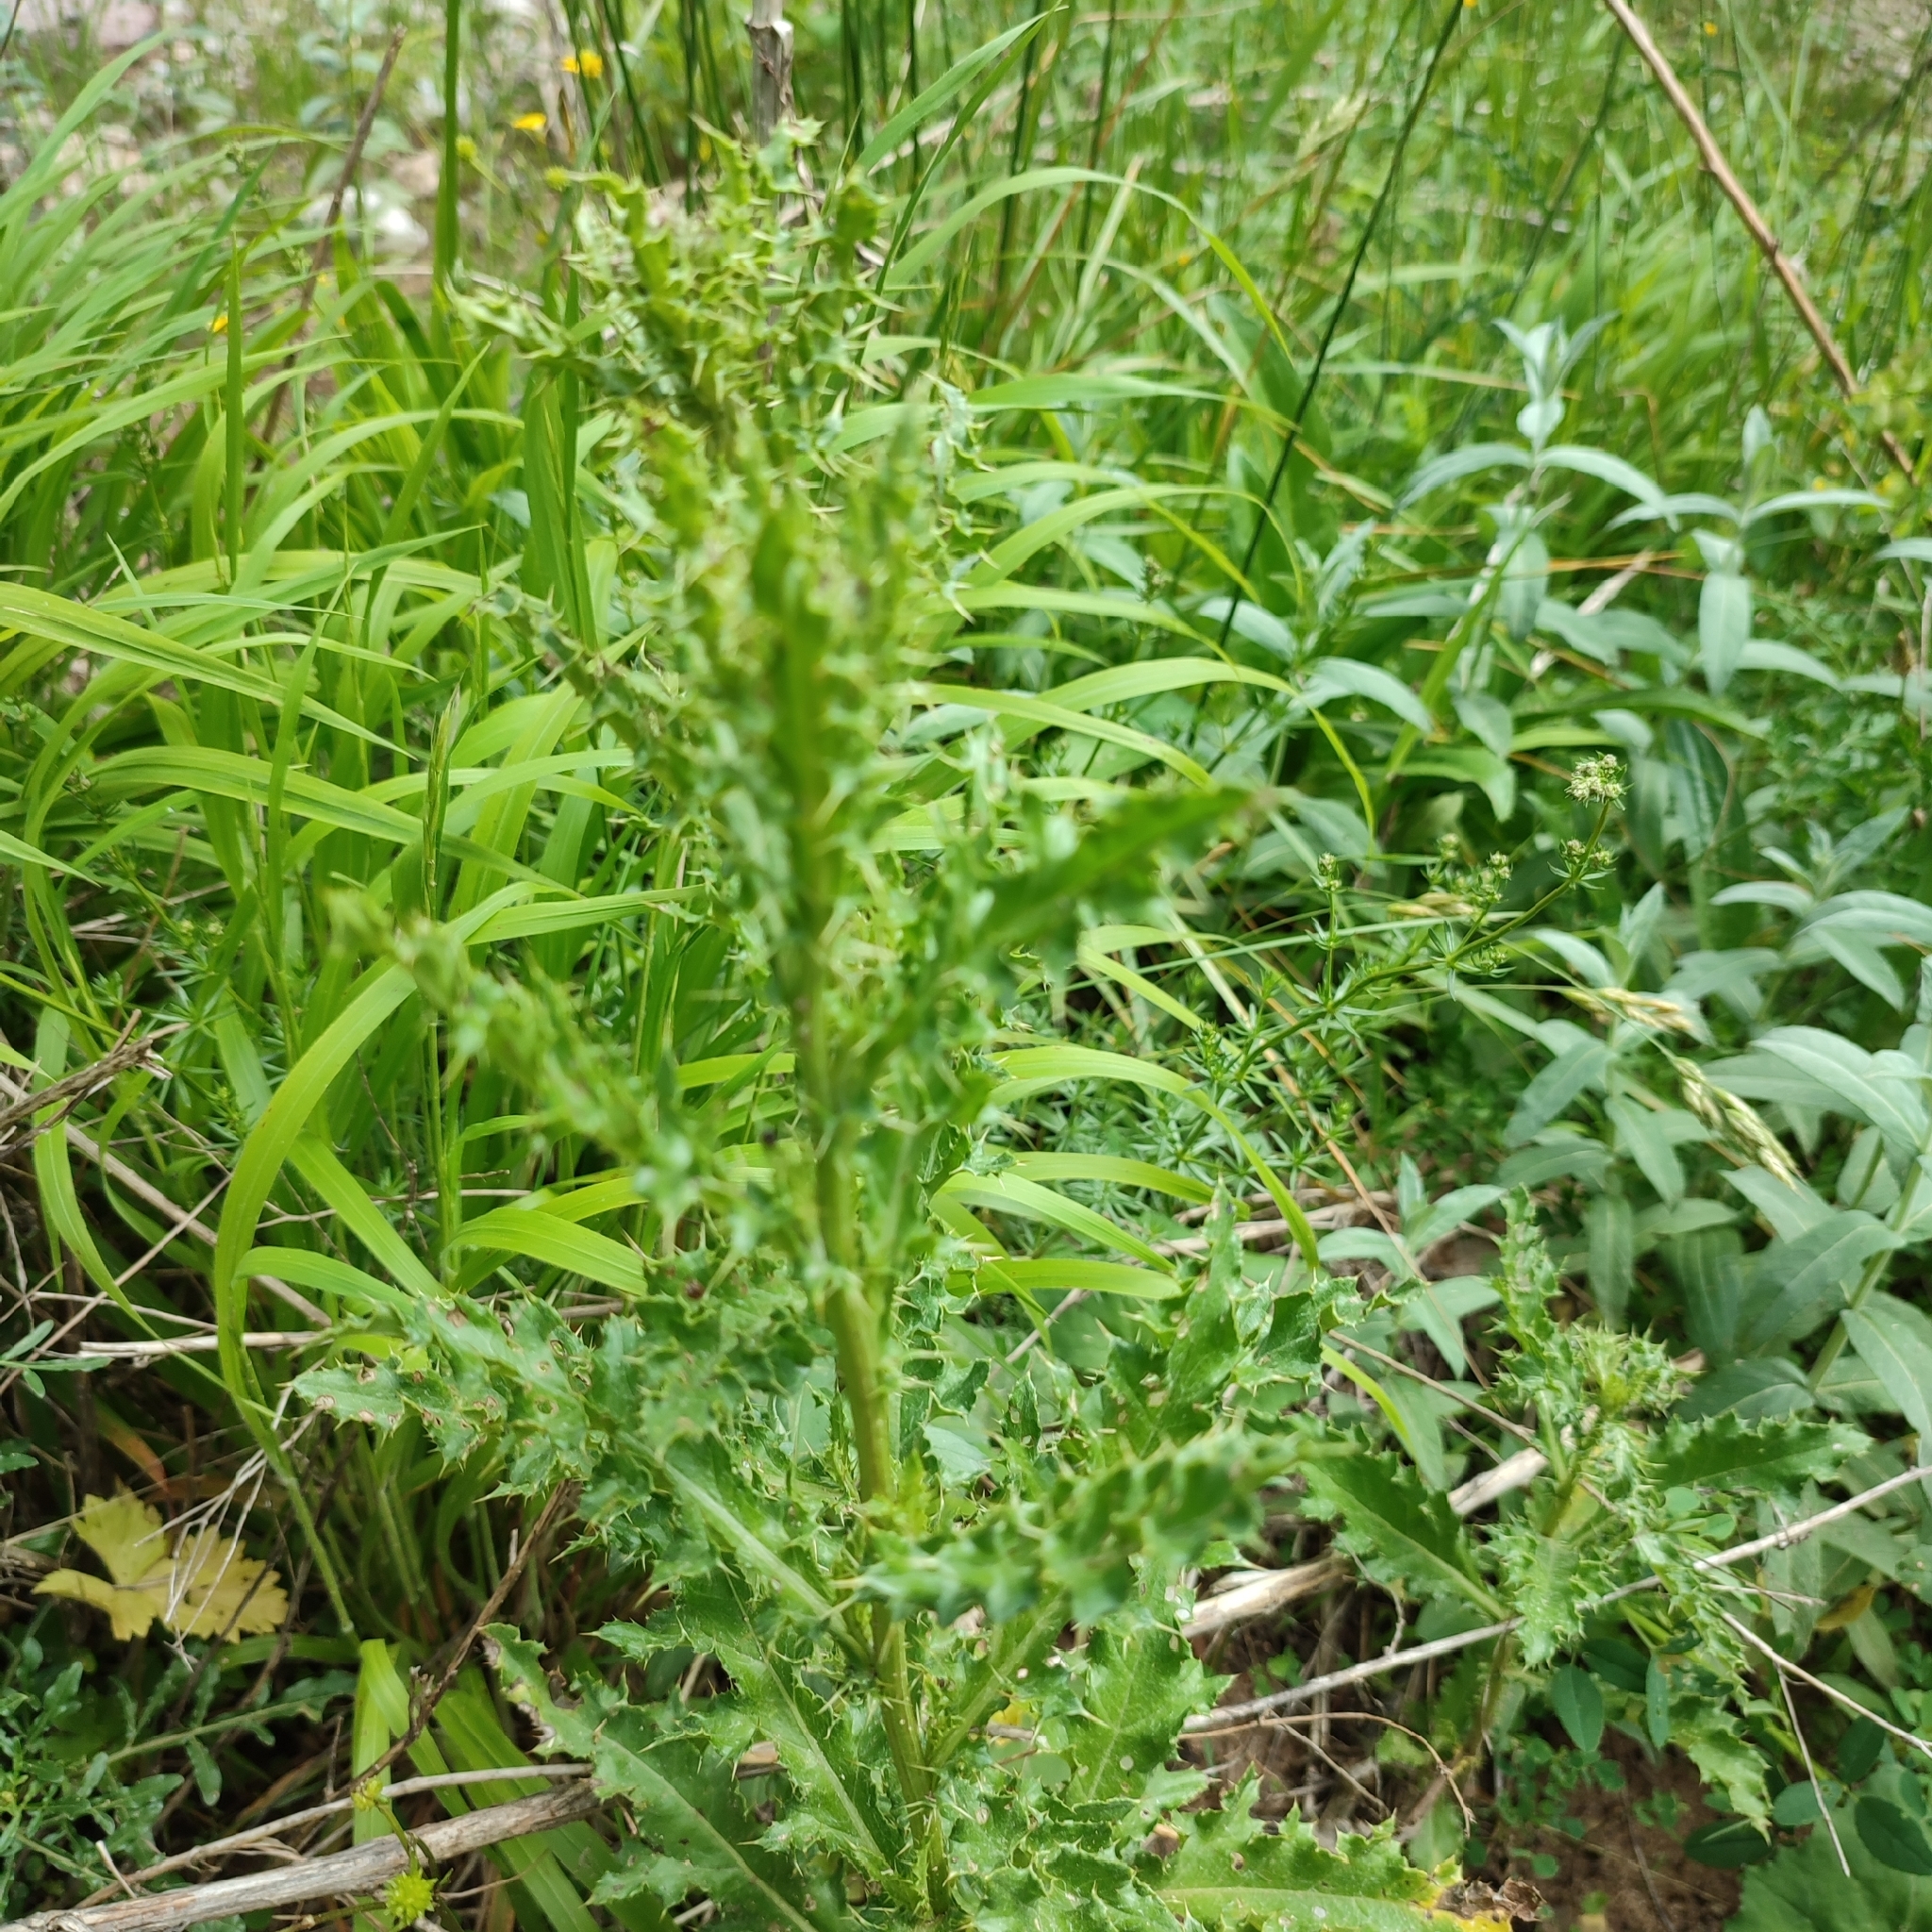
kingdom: Plantae
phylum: Tracheophyta
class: Magnoliopsida
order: Asterales
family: Asteraceae
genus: Cirsium
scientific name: Cirsium arvense
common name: Creeping thistle
